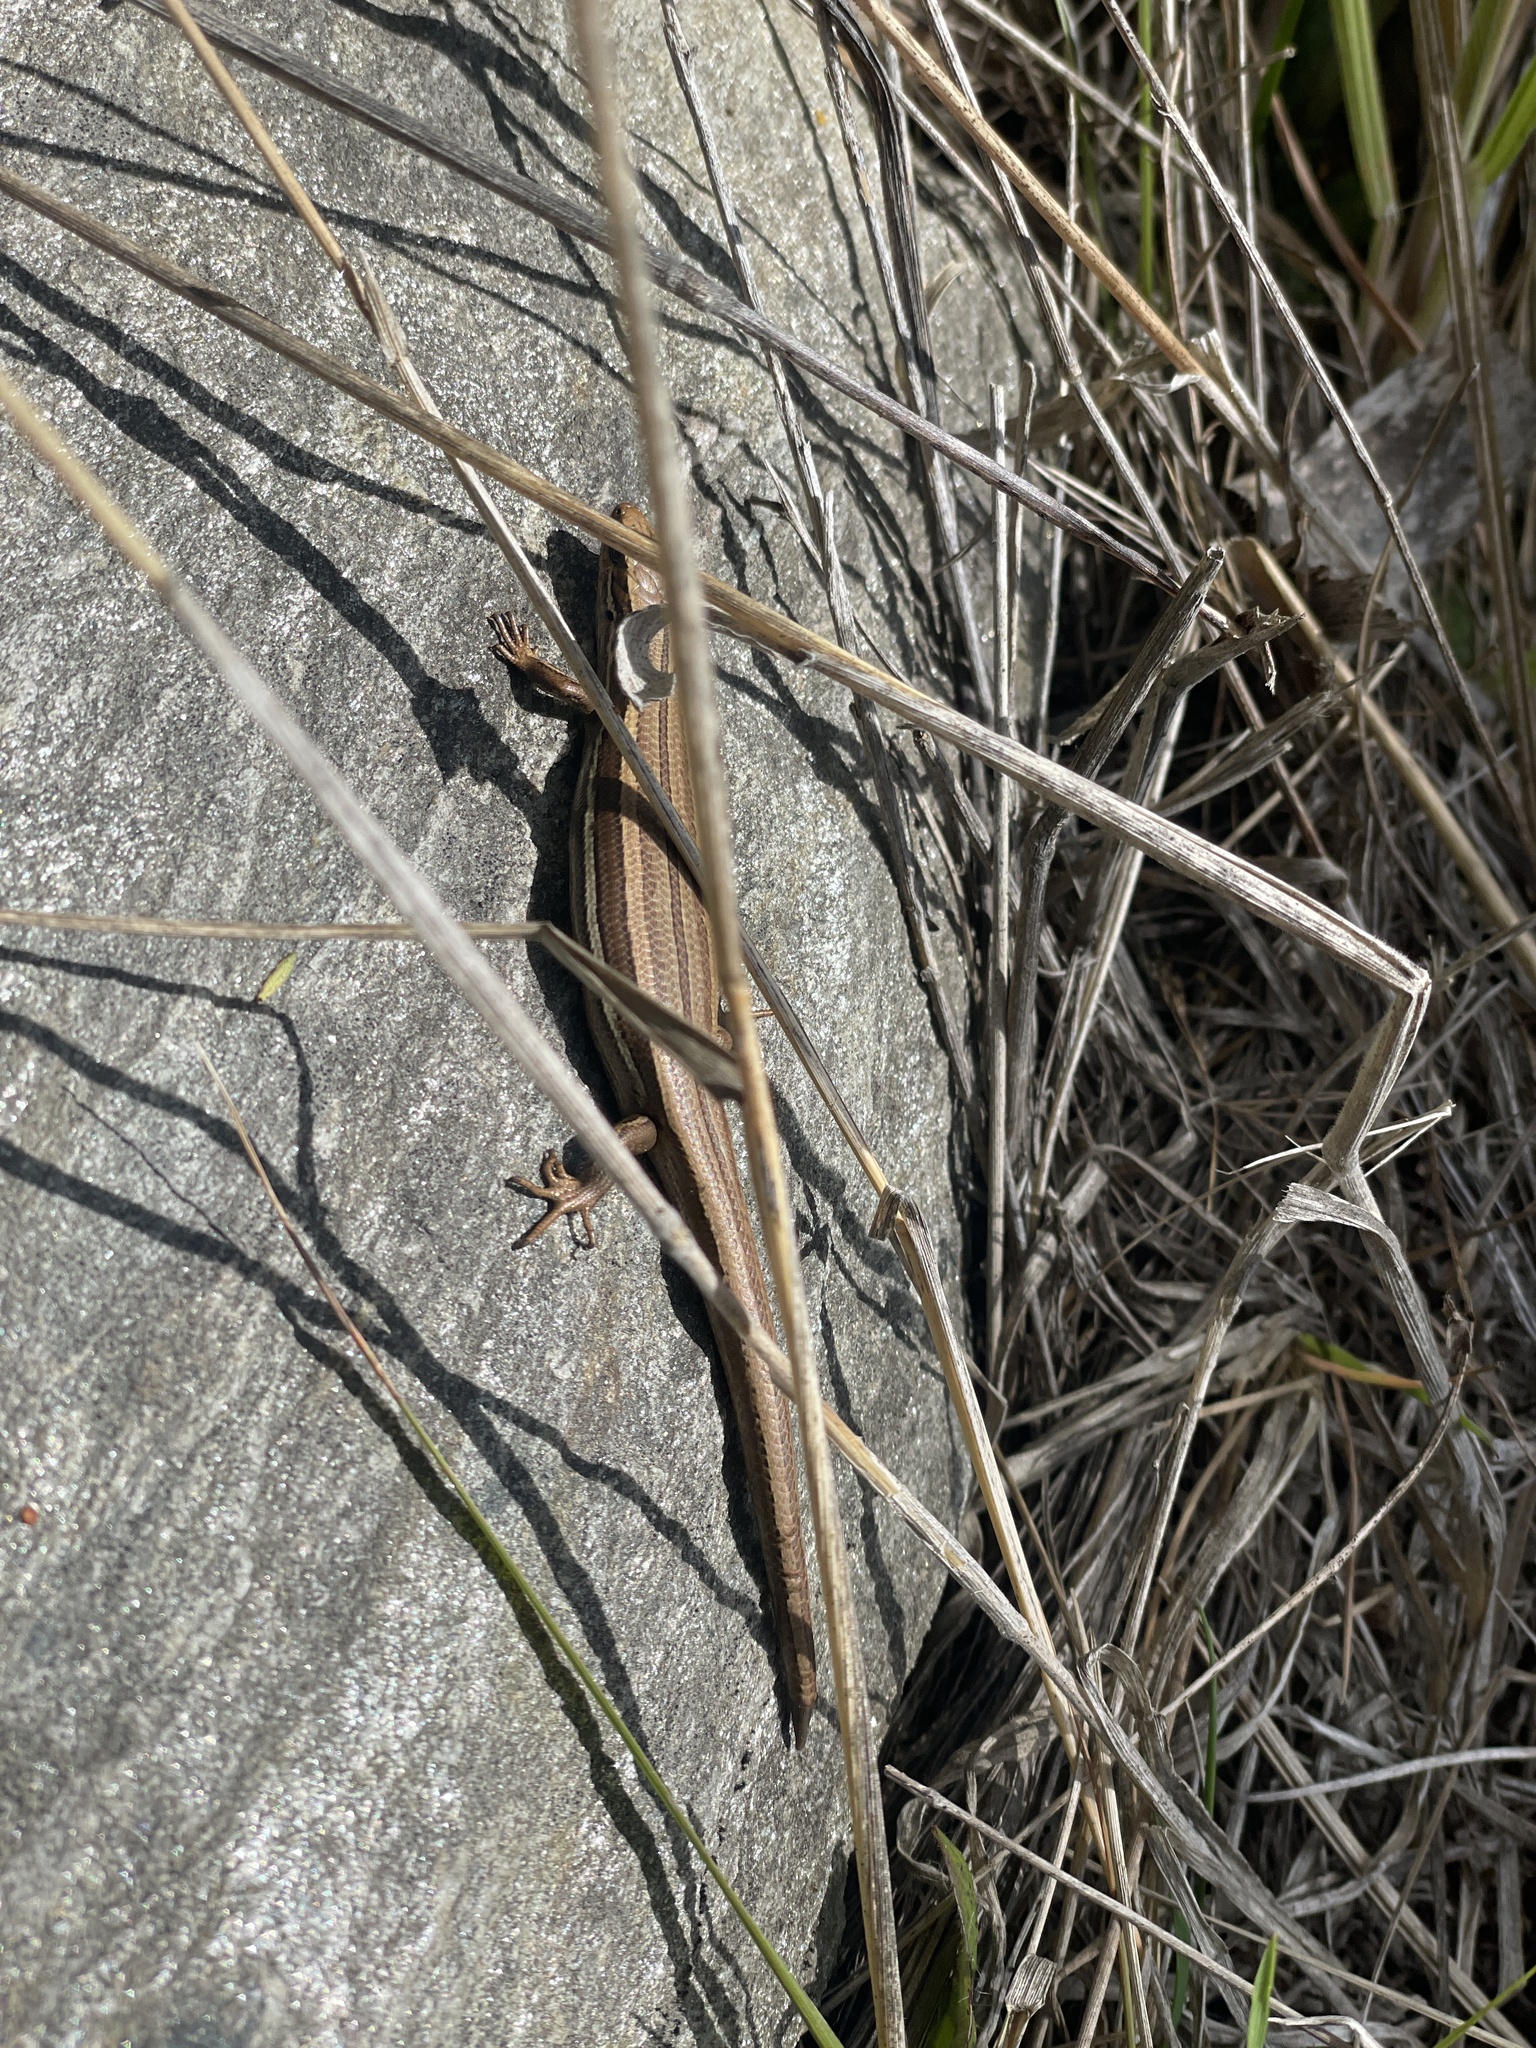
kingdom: Animalia
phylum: Chordata
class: Squamata
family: Scincidae
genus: Oligosoma
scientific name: Oligosoma polychroma
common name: Common new zealand skink
